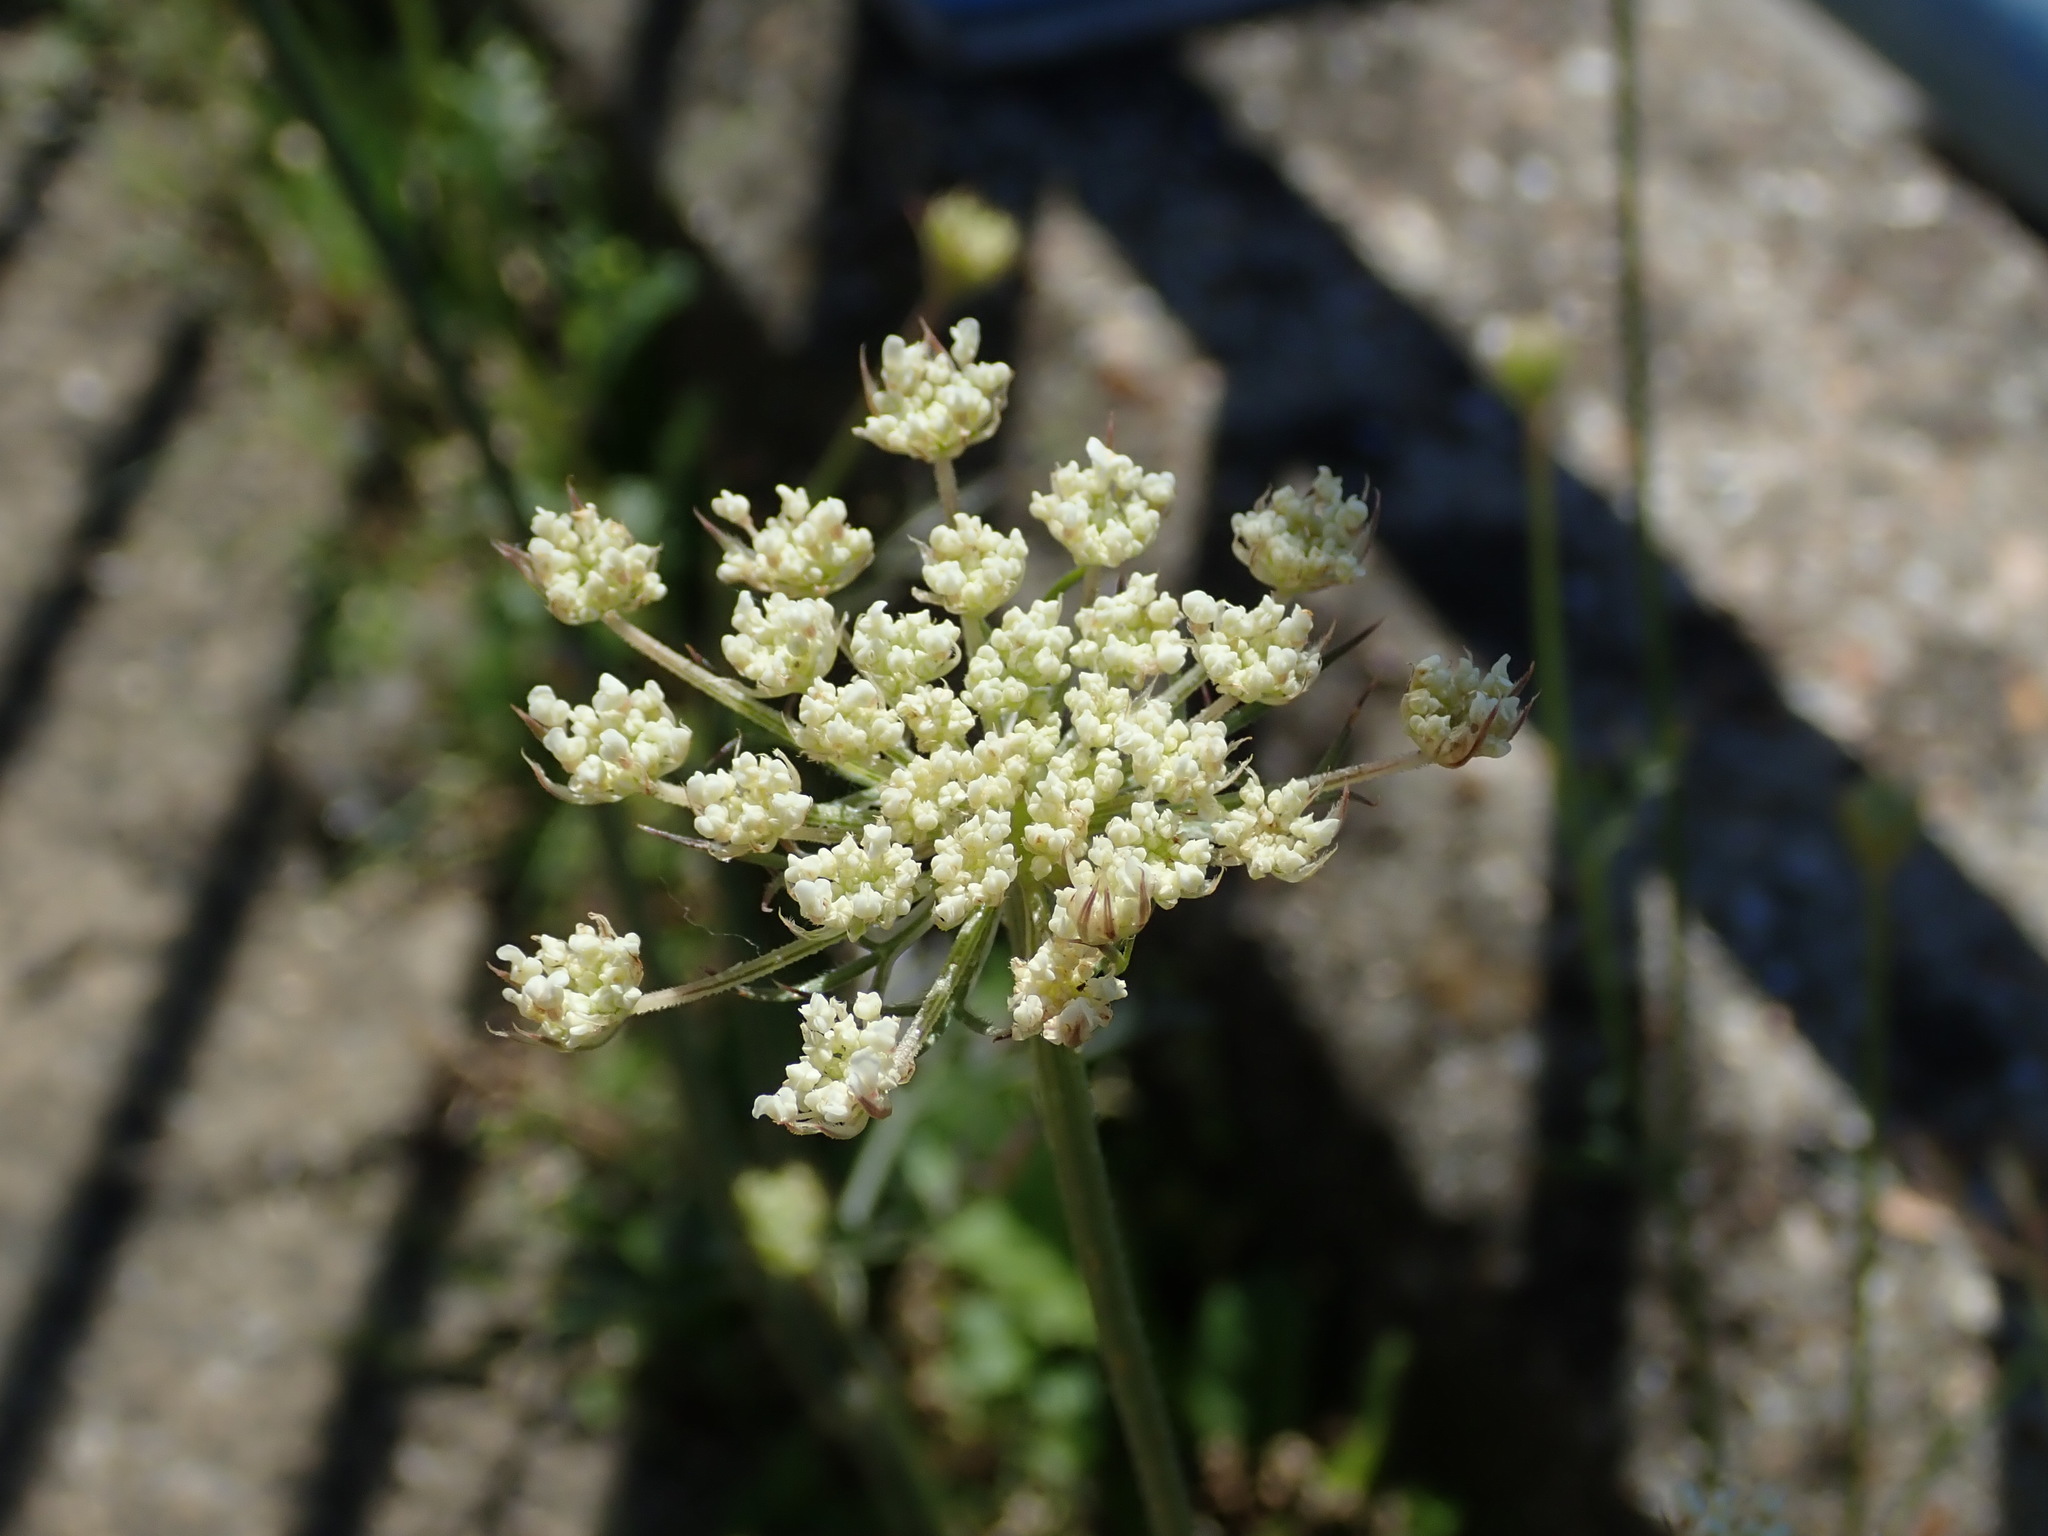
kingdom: Plantae
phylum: Tracheophyta
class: Magnoliopsida
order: Apiales
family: Apiaceae
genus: Daucus
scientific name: Daucus carota
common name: Wild carrot
